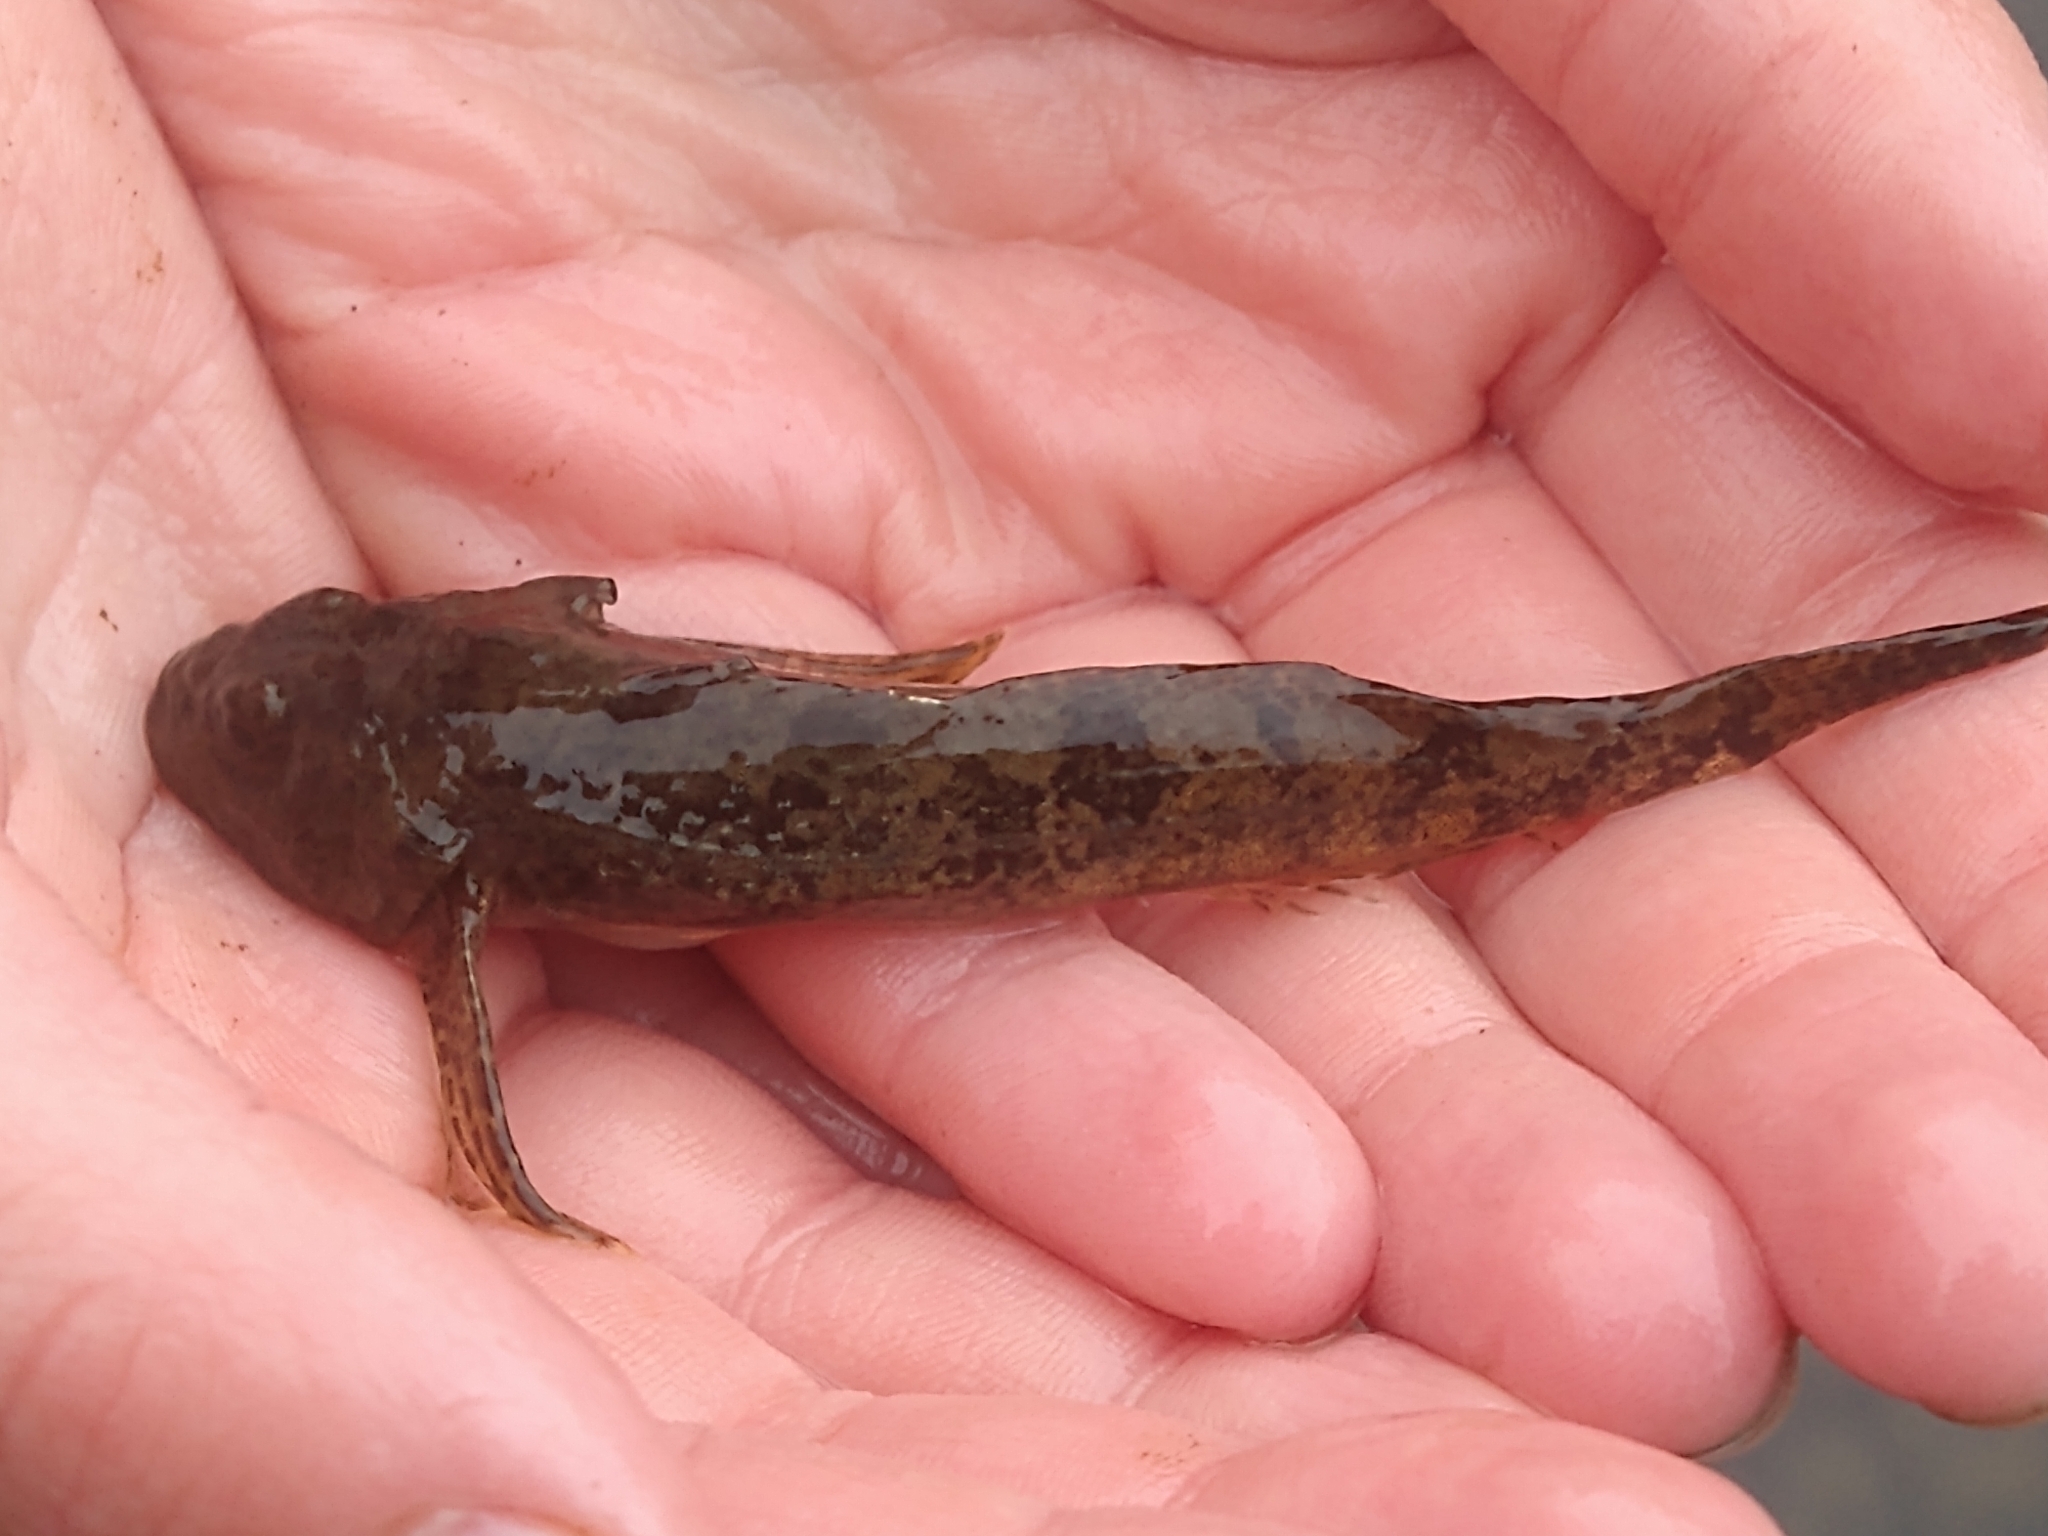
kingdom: Animalia
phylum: Chordata
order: Scorpaeniformes
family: Cottidae
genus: Cottus
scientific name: Cottus perifretum
